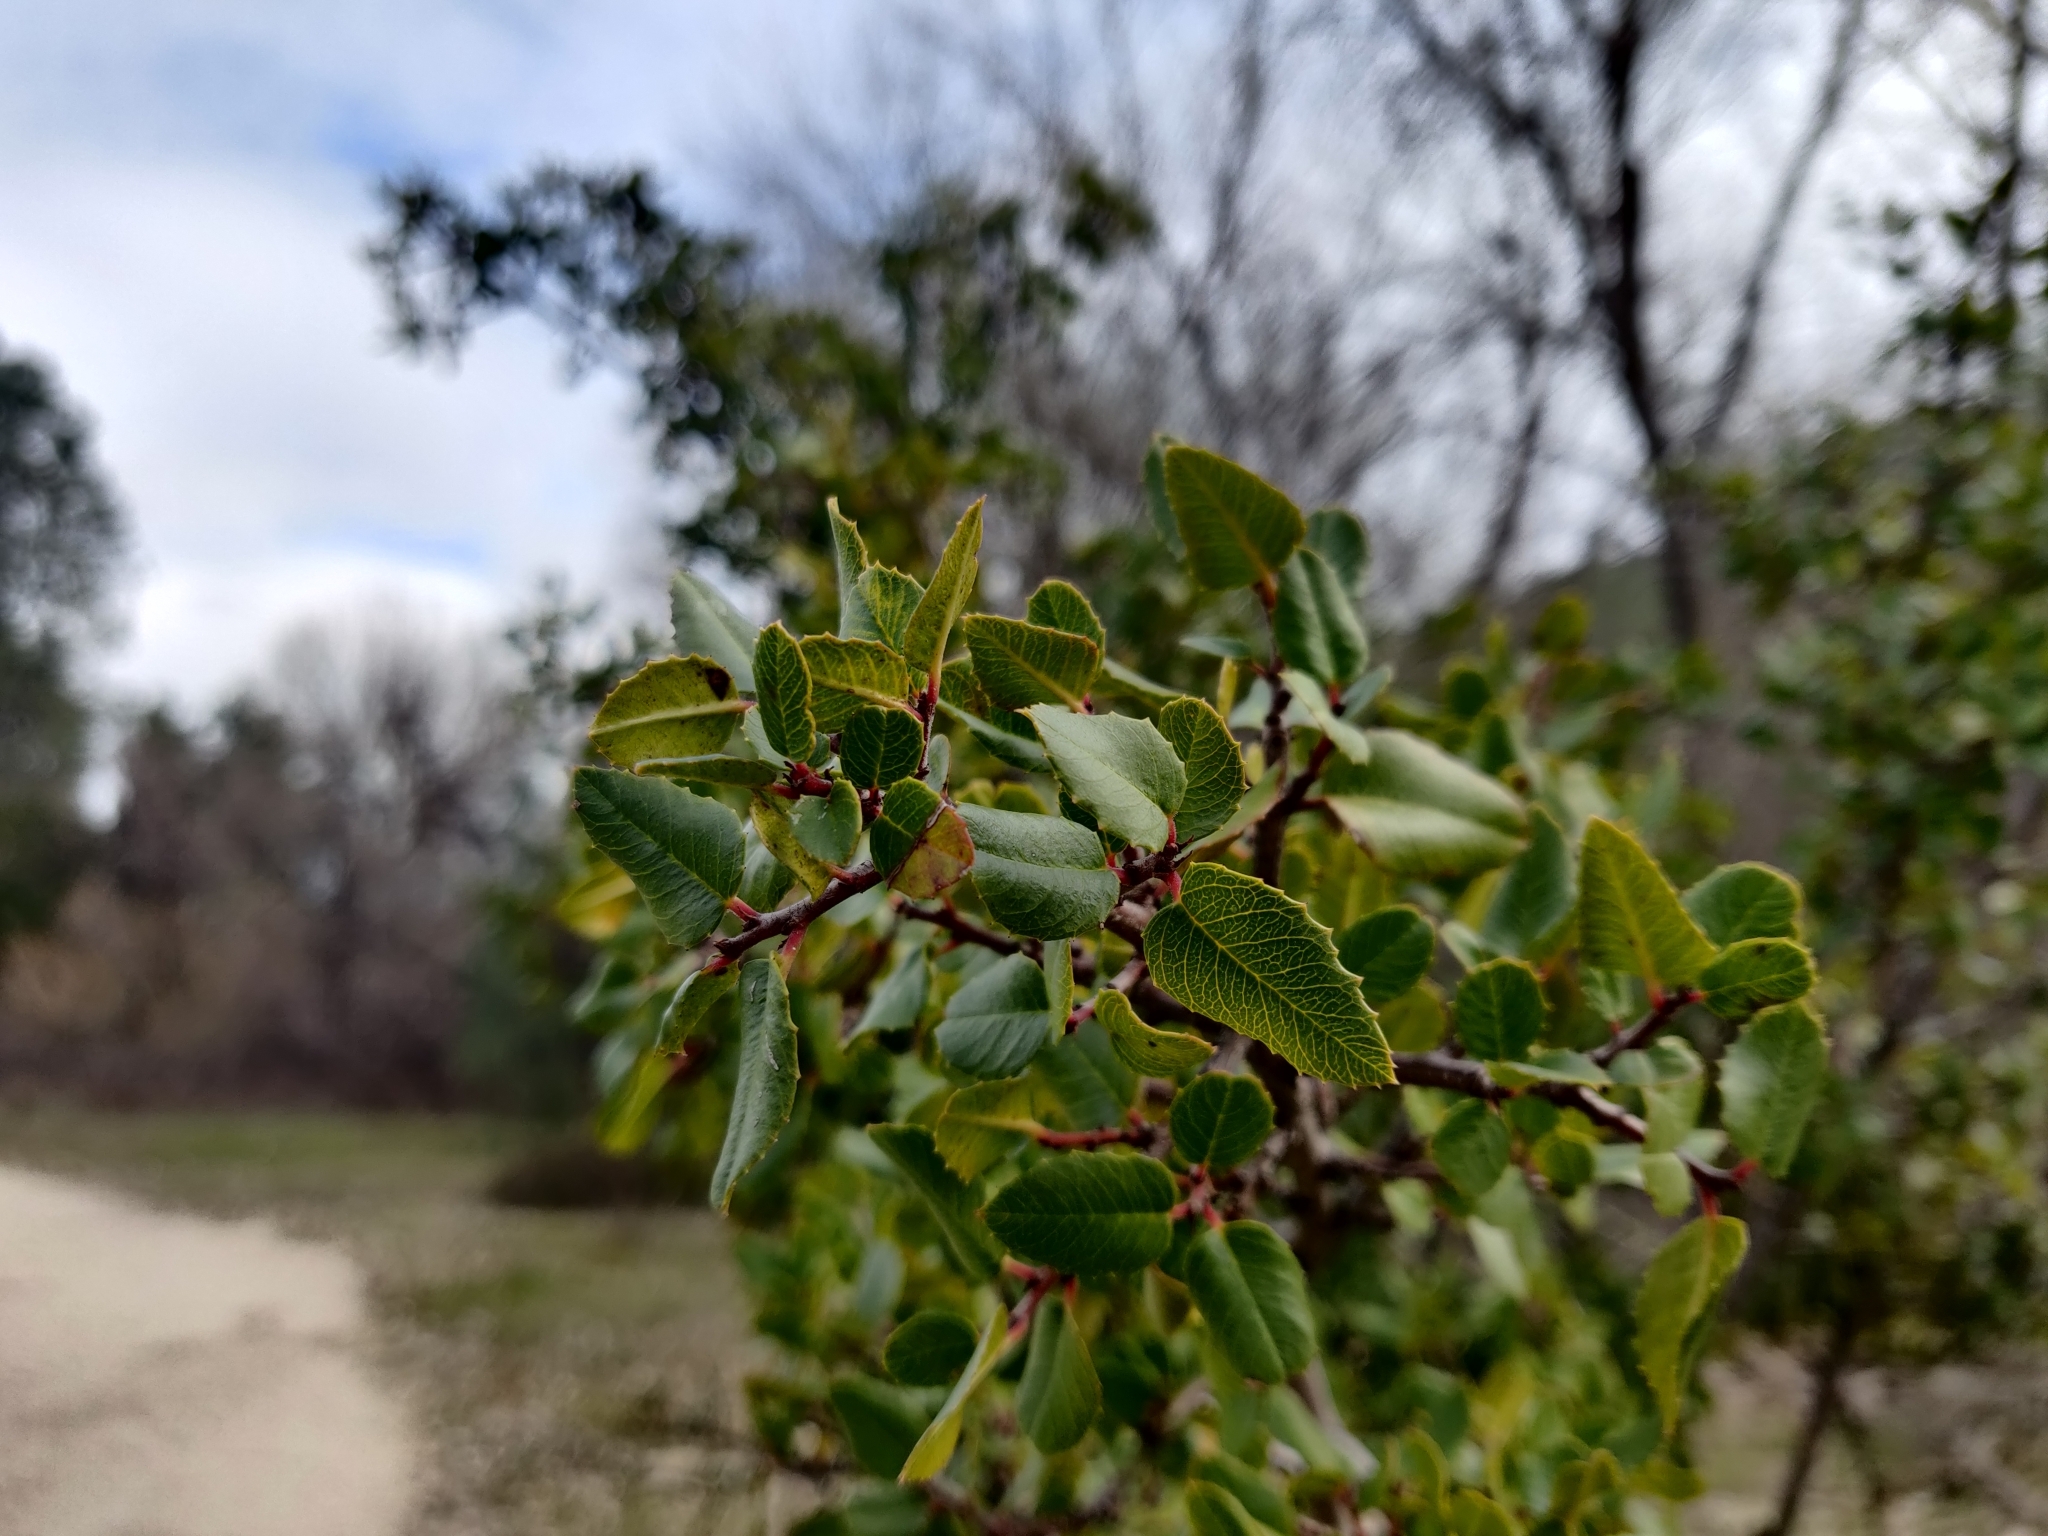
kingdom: Plantae
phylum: Tracheophyta
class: Magnoliopsida
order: Rosales
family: Rhamnaceae
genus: Endotropis
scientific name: Endotropis crocea
